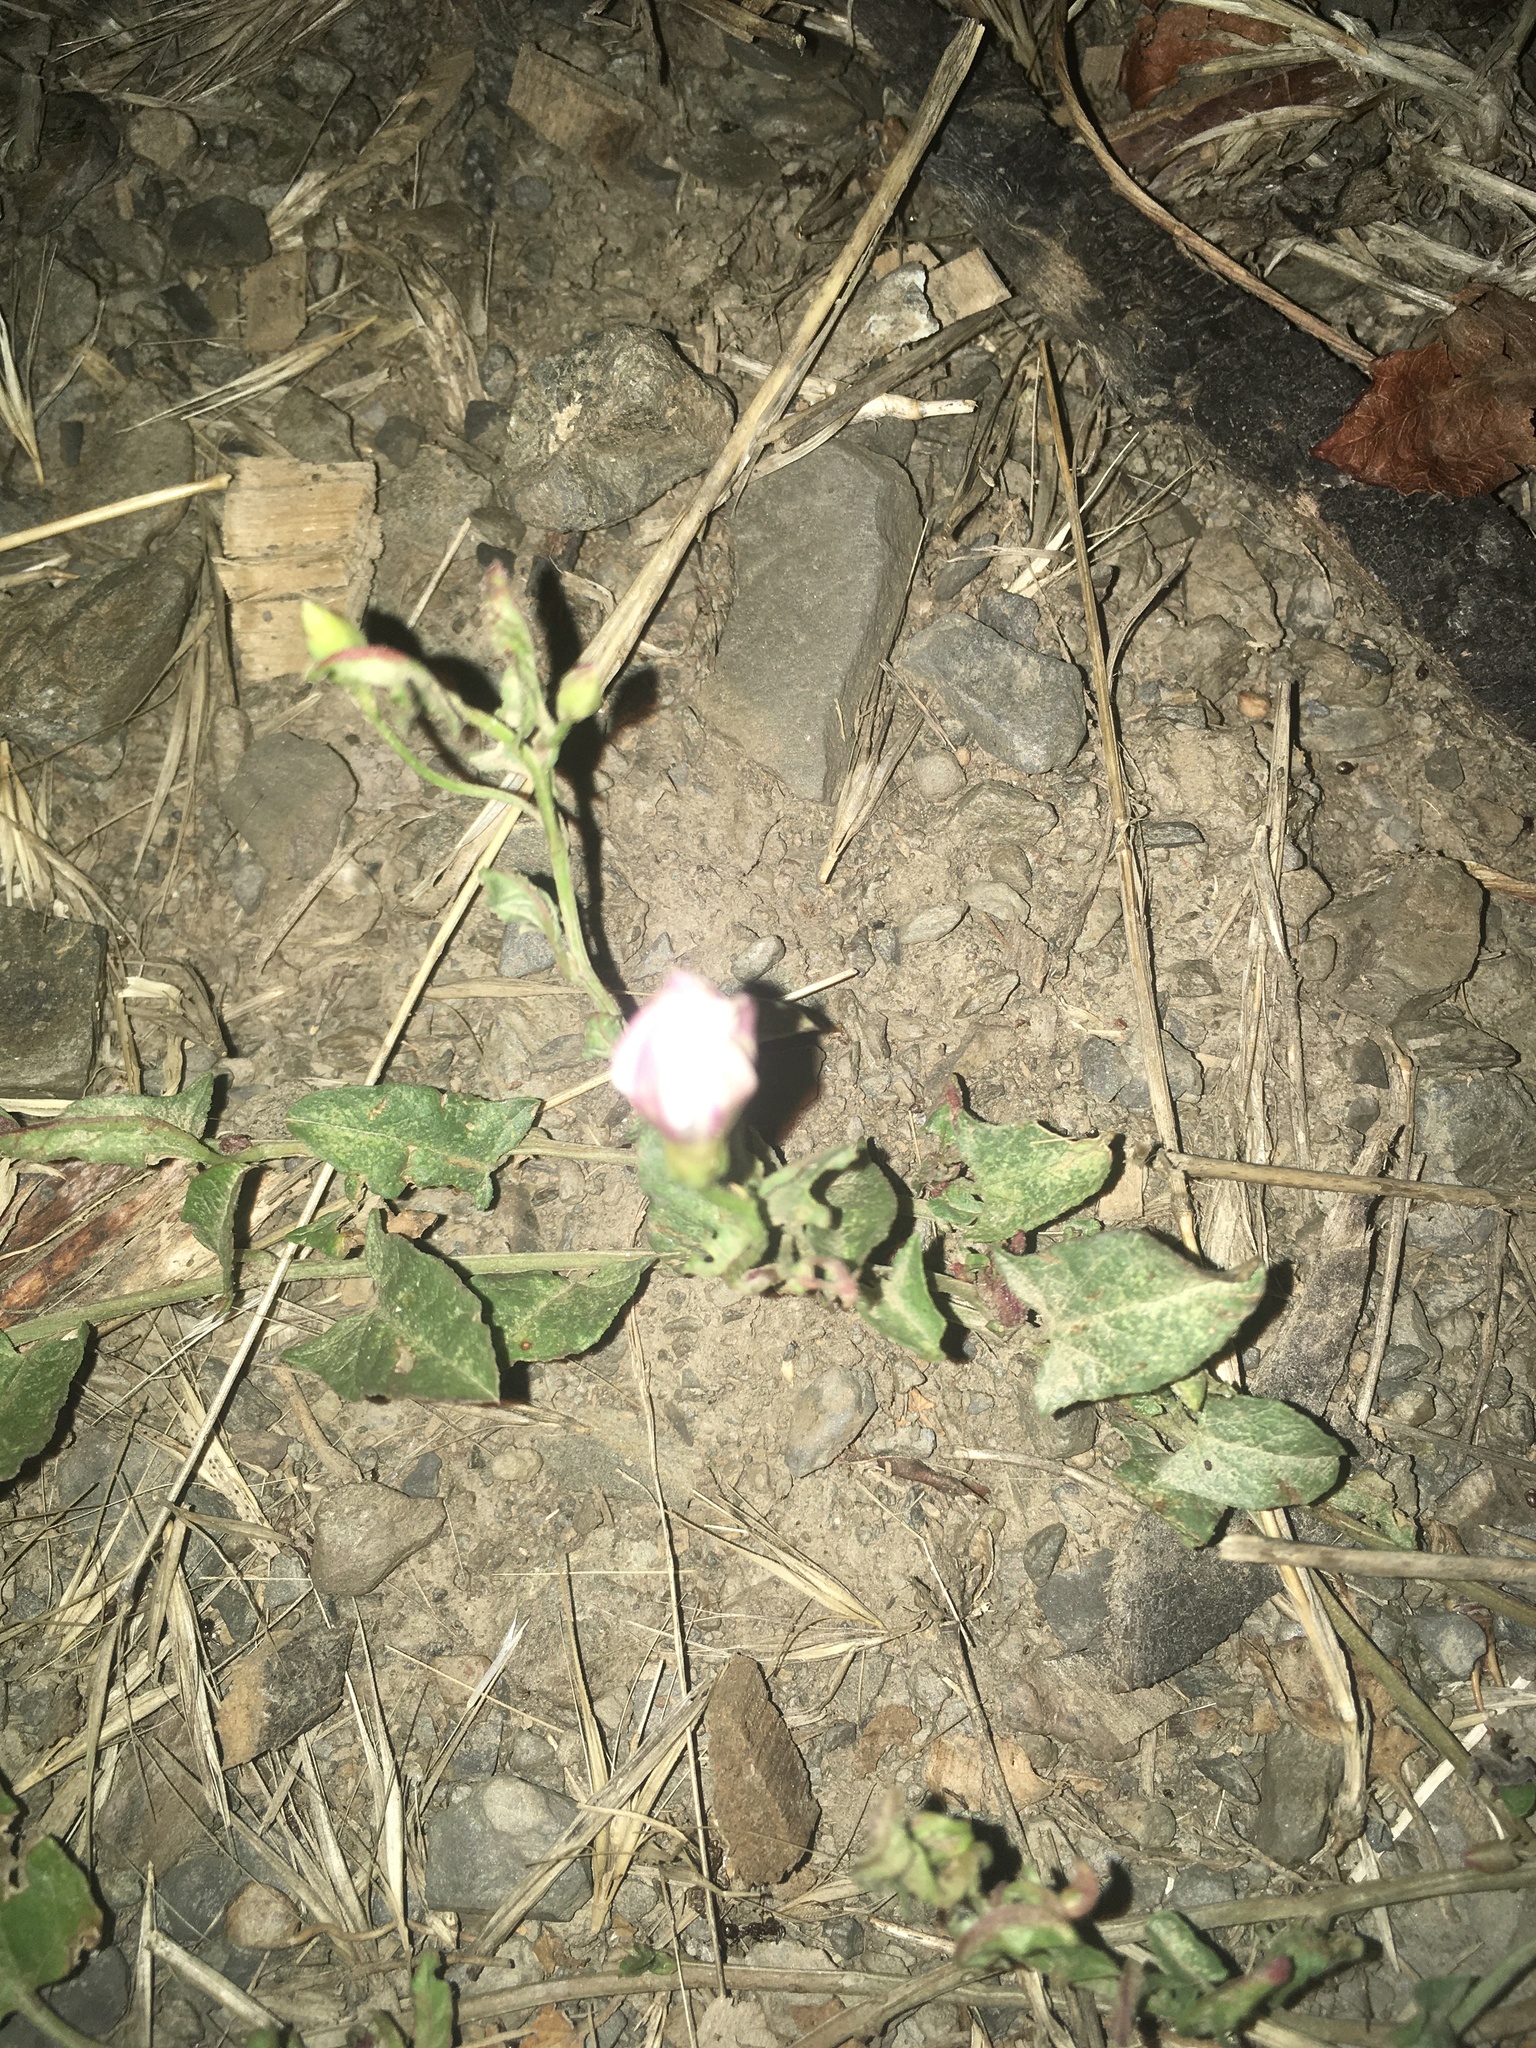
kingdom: Plantae
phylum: Tracheophyta
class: Magnoliopsida
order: Solanales
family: Convolvulaceae
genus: Convolvulus
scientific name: Convolvulus arvensis
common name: Field bindweed
